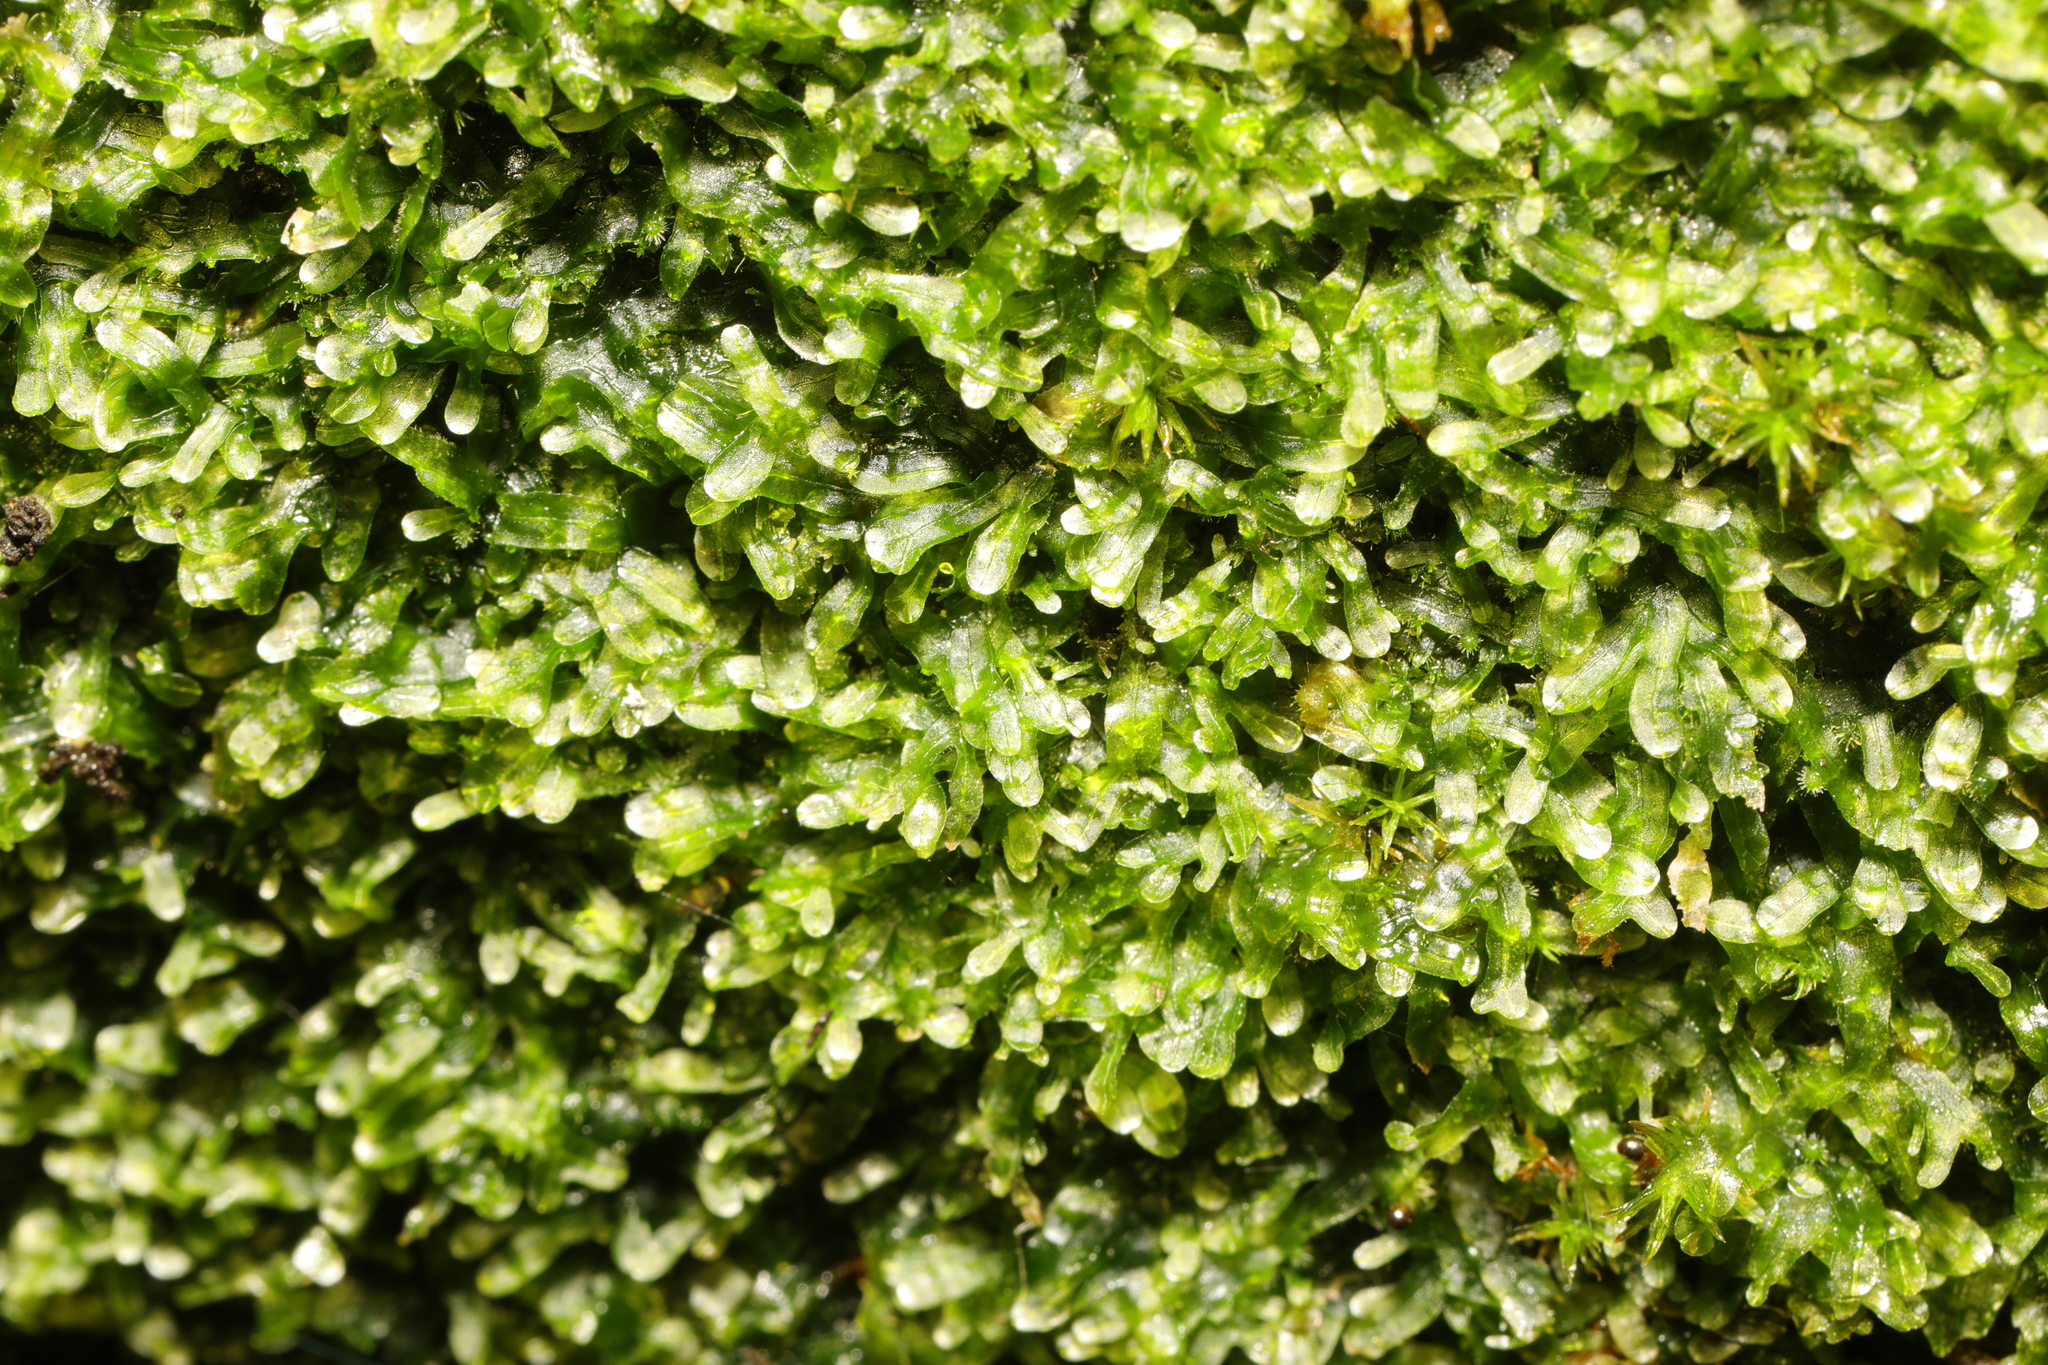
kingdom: Plantae
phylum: Marchantiophyta
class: Jungermanniopsida
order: Metzgeriales
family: Metzgeriaceae
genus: Metzgeria
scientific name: Metzgeria furcata
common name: Forked veilwort
